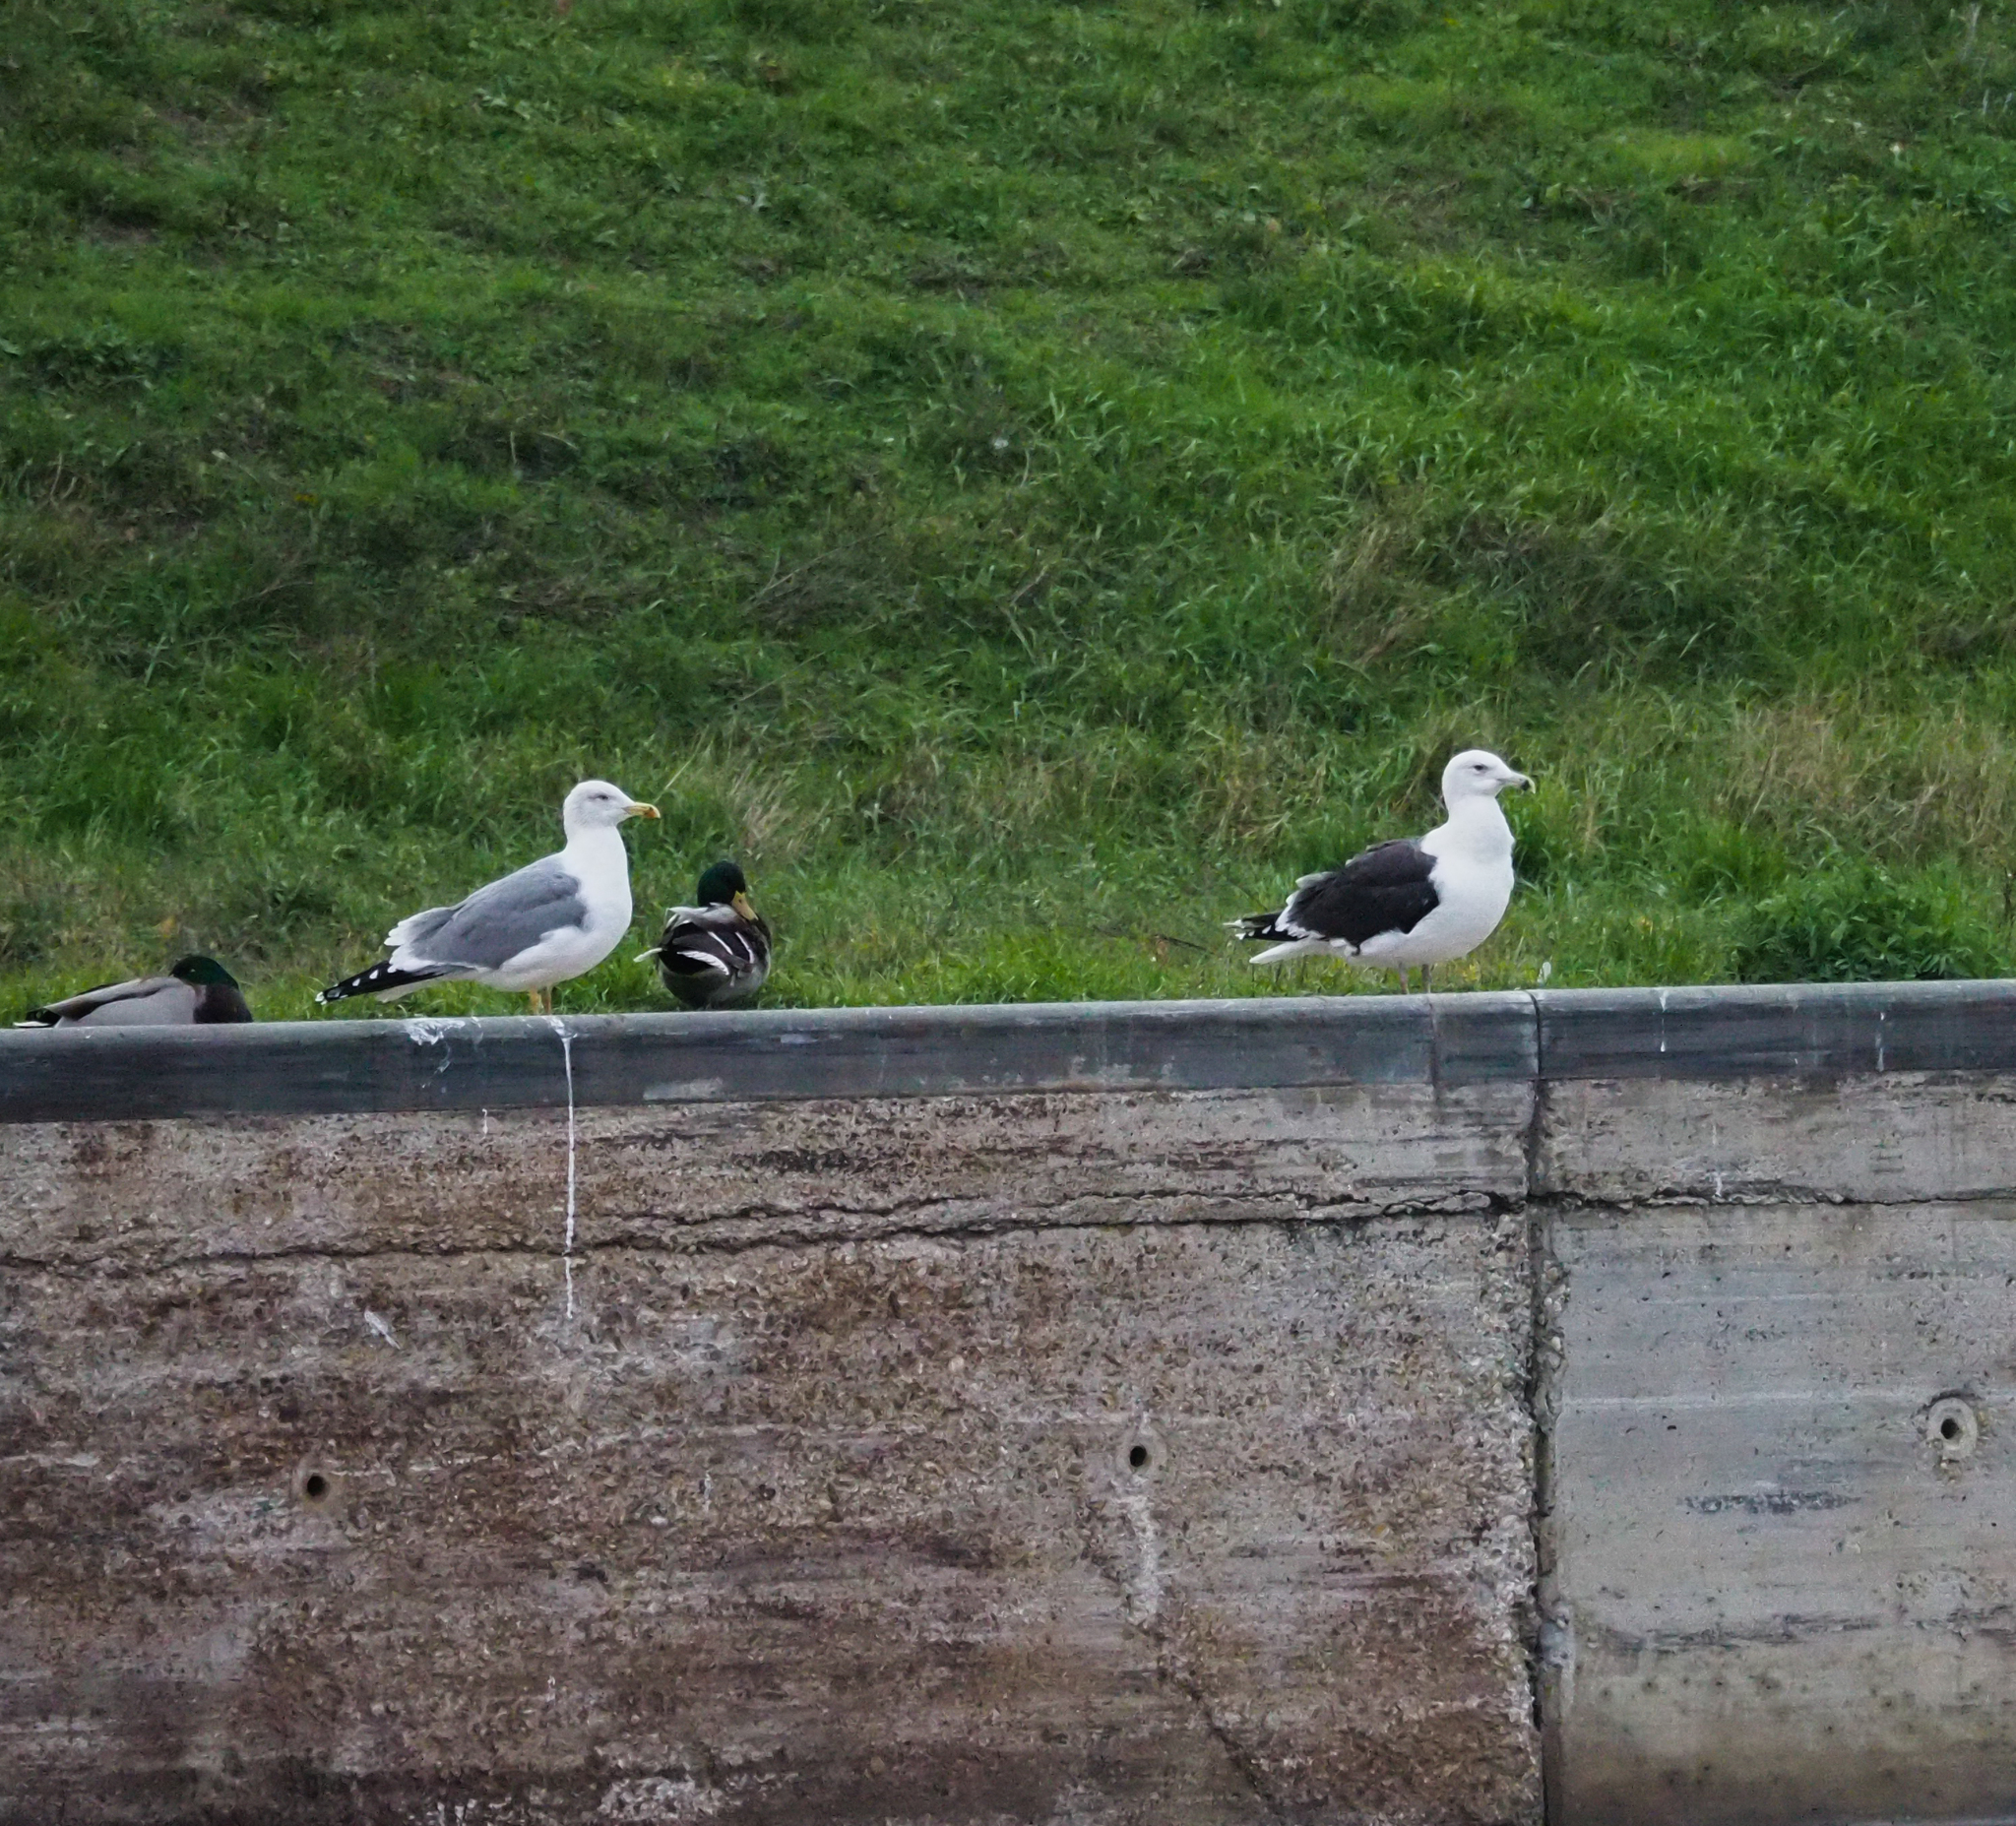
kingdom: Animalia
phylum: Chordata
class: Aves
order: Charadriiformes
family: Laridae
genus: Larus
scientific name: Larus marinus
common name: Great black-backed gull
